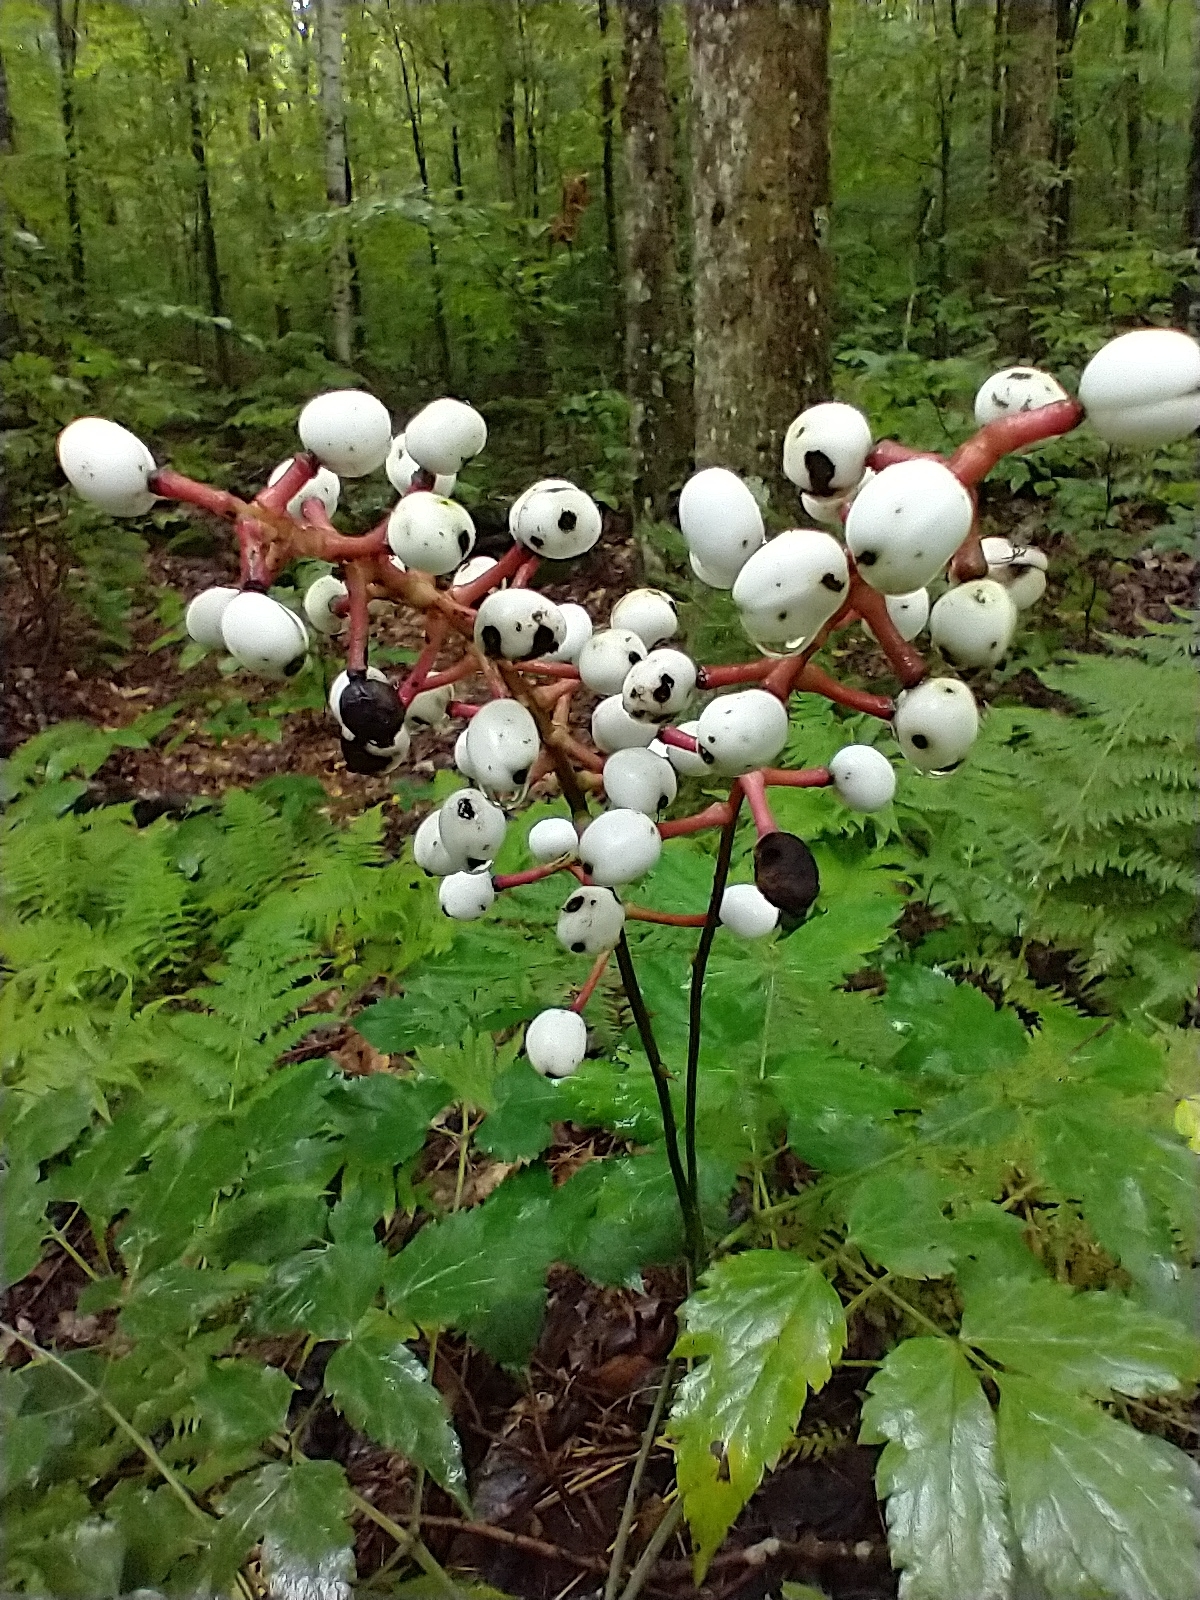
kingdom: Plantae
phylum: Tracheophyta
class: Magnoliopsida
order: Ranunculales
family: Ranunculaceae
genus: Actaea
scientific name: Actaea pachypoda
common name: Doll's-eyes
